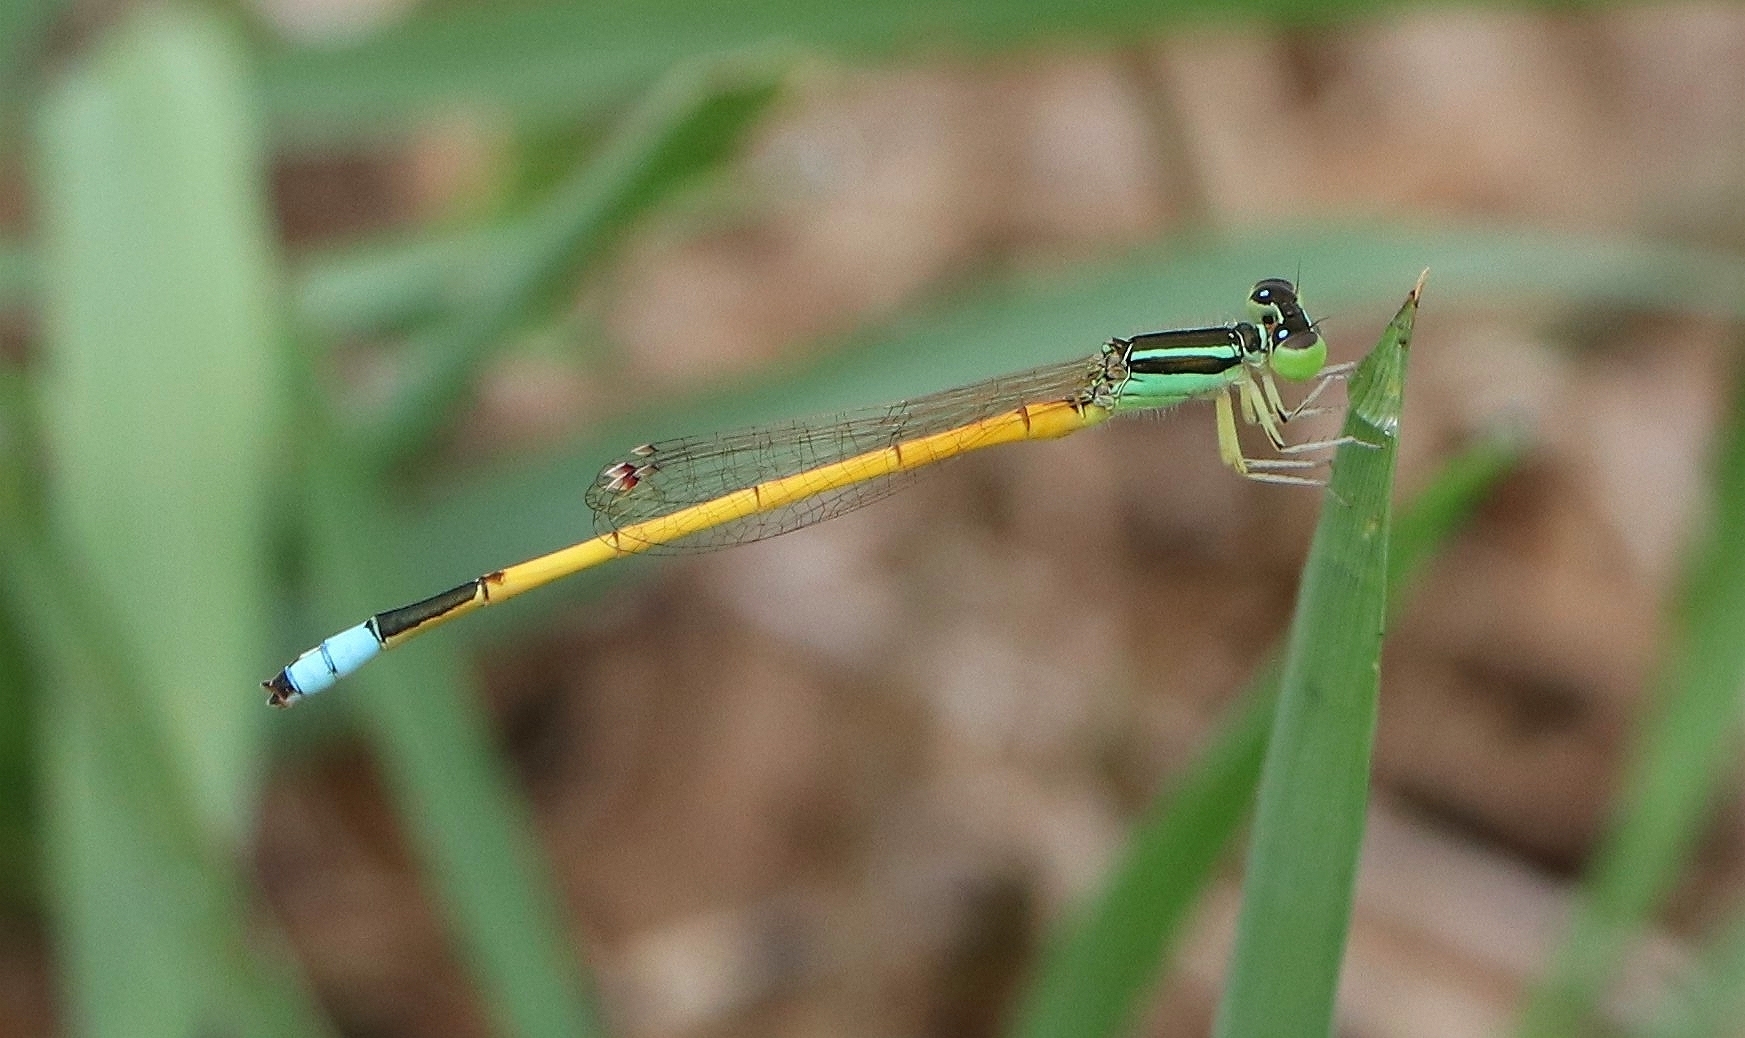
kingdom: Animalia
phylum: Arthropoda
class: Insecta
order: Odonata
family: Coenagrionidae
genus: Ischnura
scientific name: Ischnura rubilio
